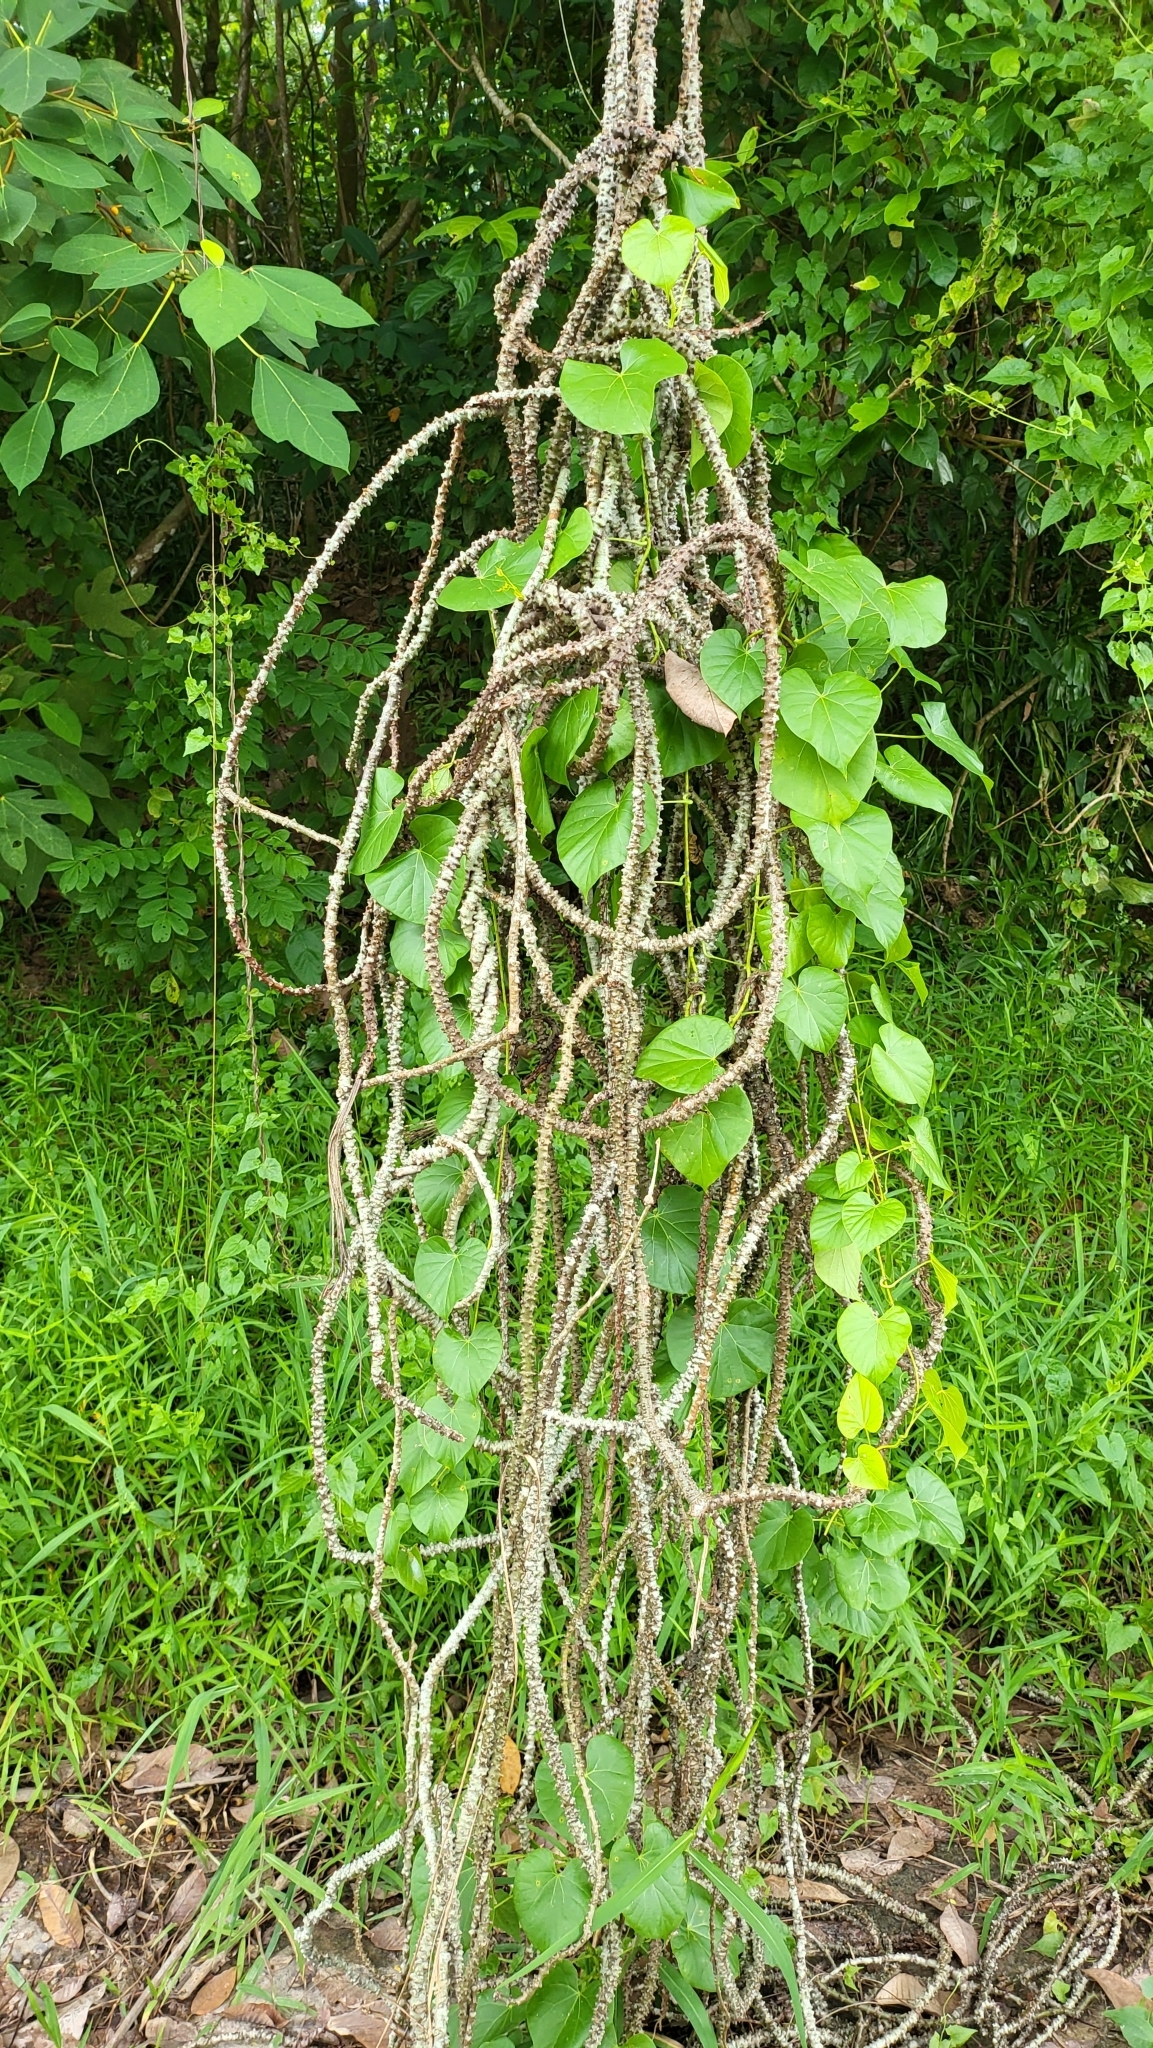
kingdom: Plantae
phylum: Tracheophyta
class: Magnoliopsida
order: Ranunculales
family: Menispermaceae
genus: Tinospora
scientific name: Tinospora crispa
